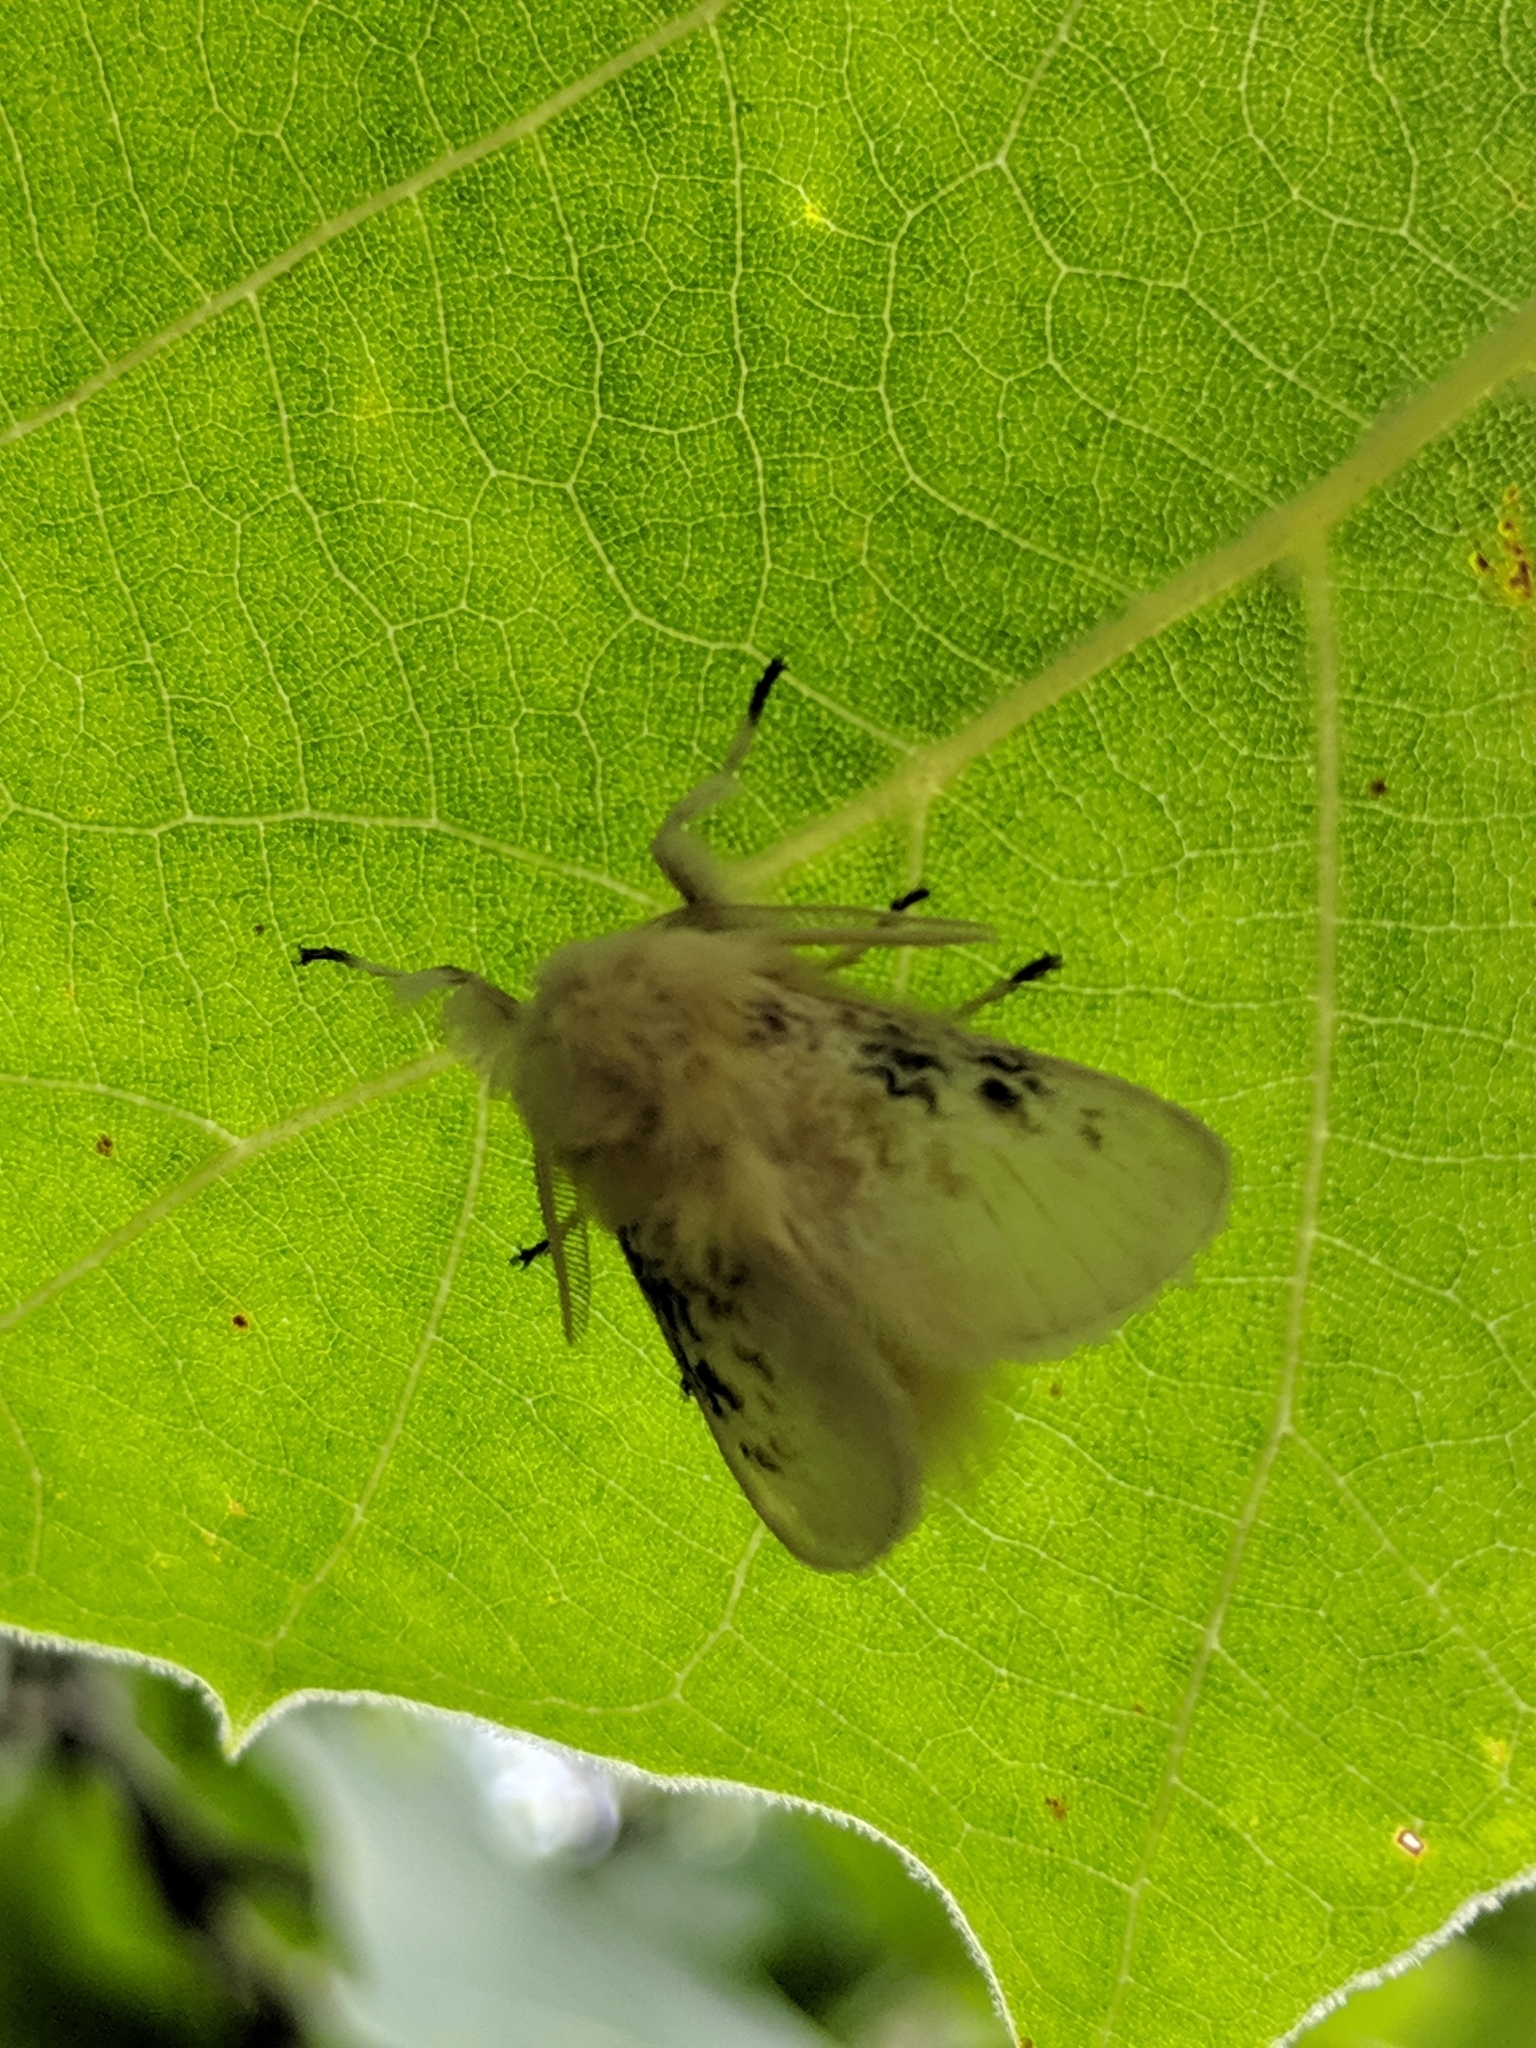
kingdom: Animalia
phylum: Arthropoda
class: Insecta
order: Lepidoptera
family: Megalopygidae
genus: Megalopyge
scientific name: Megalopyge crispata
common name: Black-waved flannel moth
